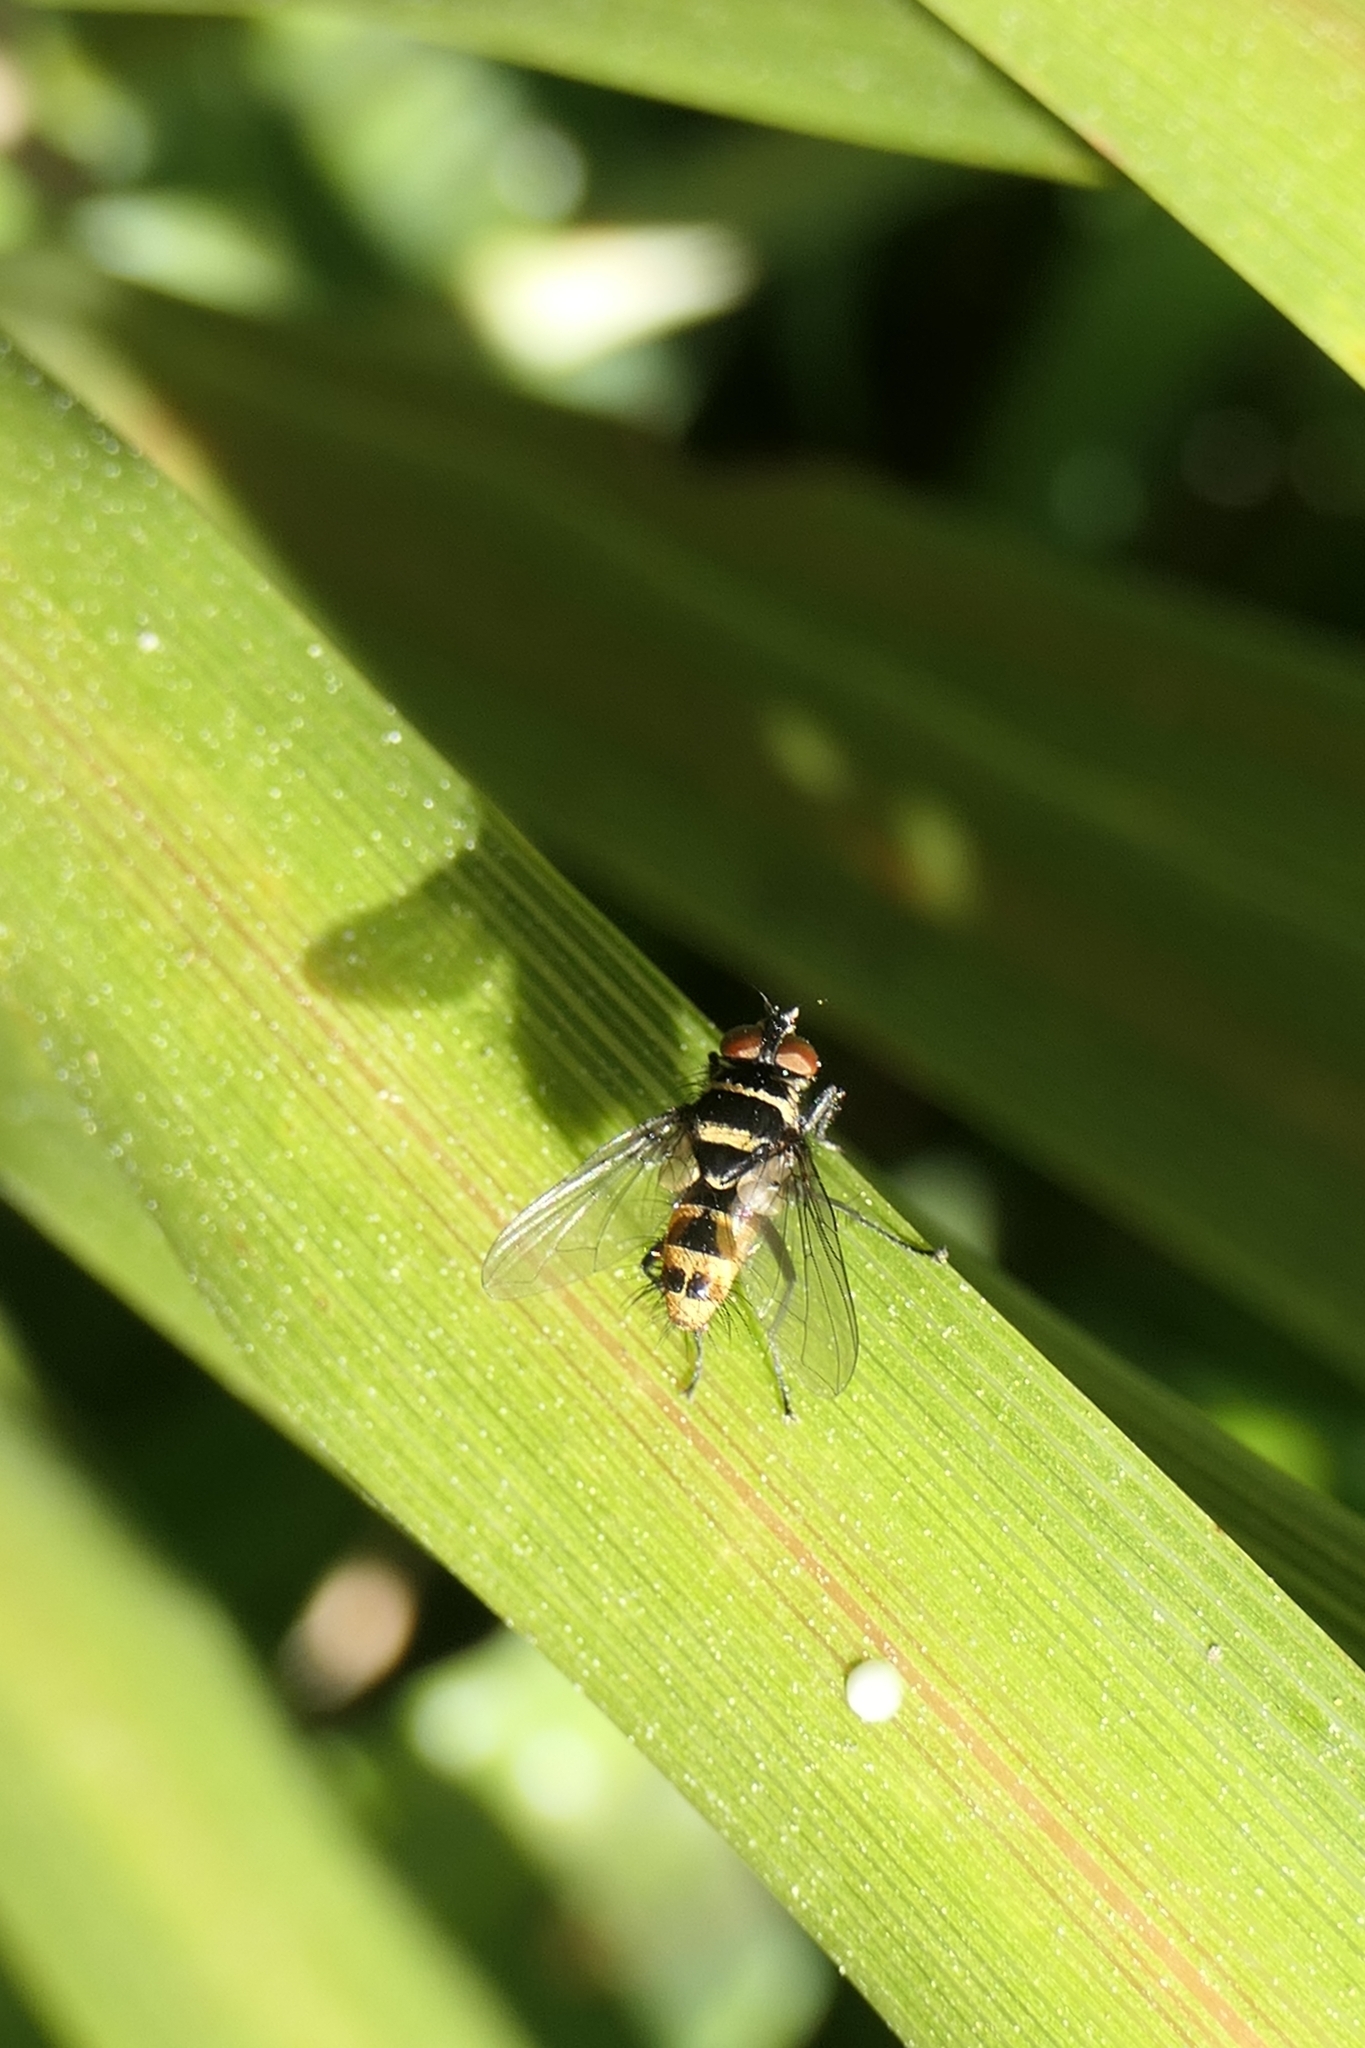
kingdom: Animalia
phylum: Arthropoda
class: Insecta
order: Diptera
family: Tachinidae
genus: Trigonospila
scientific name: Trigonospila brevifacies
